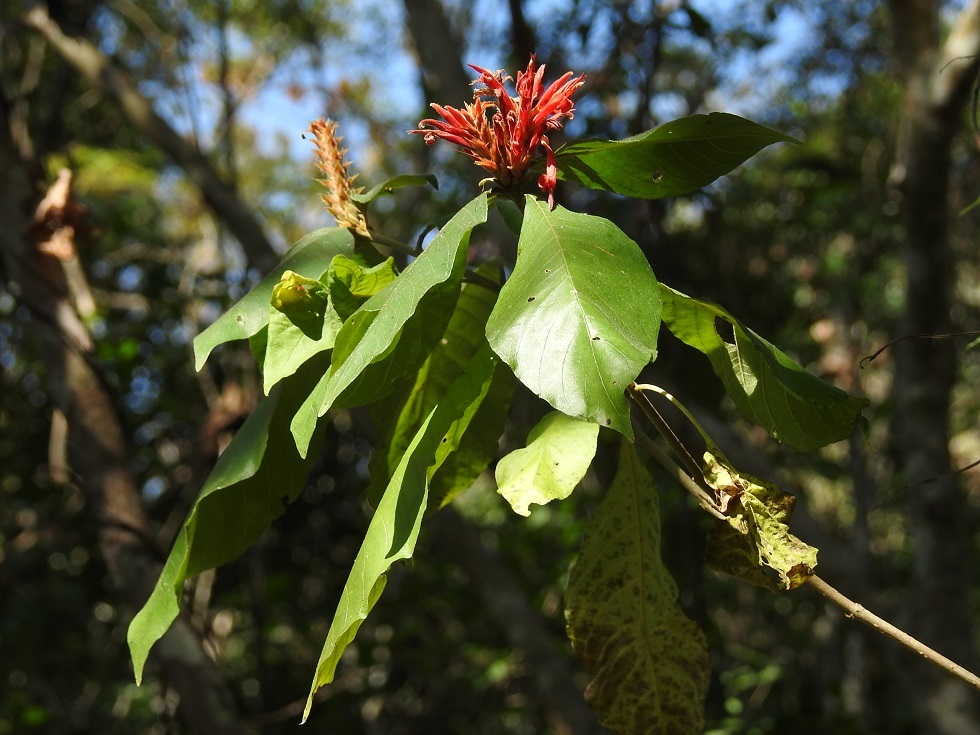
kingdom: Plantae
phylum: Tracheophyta
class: Magnoliopsida
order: Lamiales
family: Acanthaceae
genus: Aphelandra
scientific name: Aphelandra scabra
